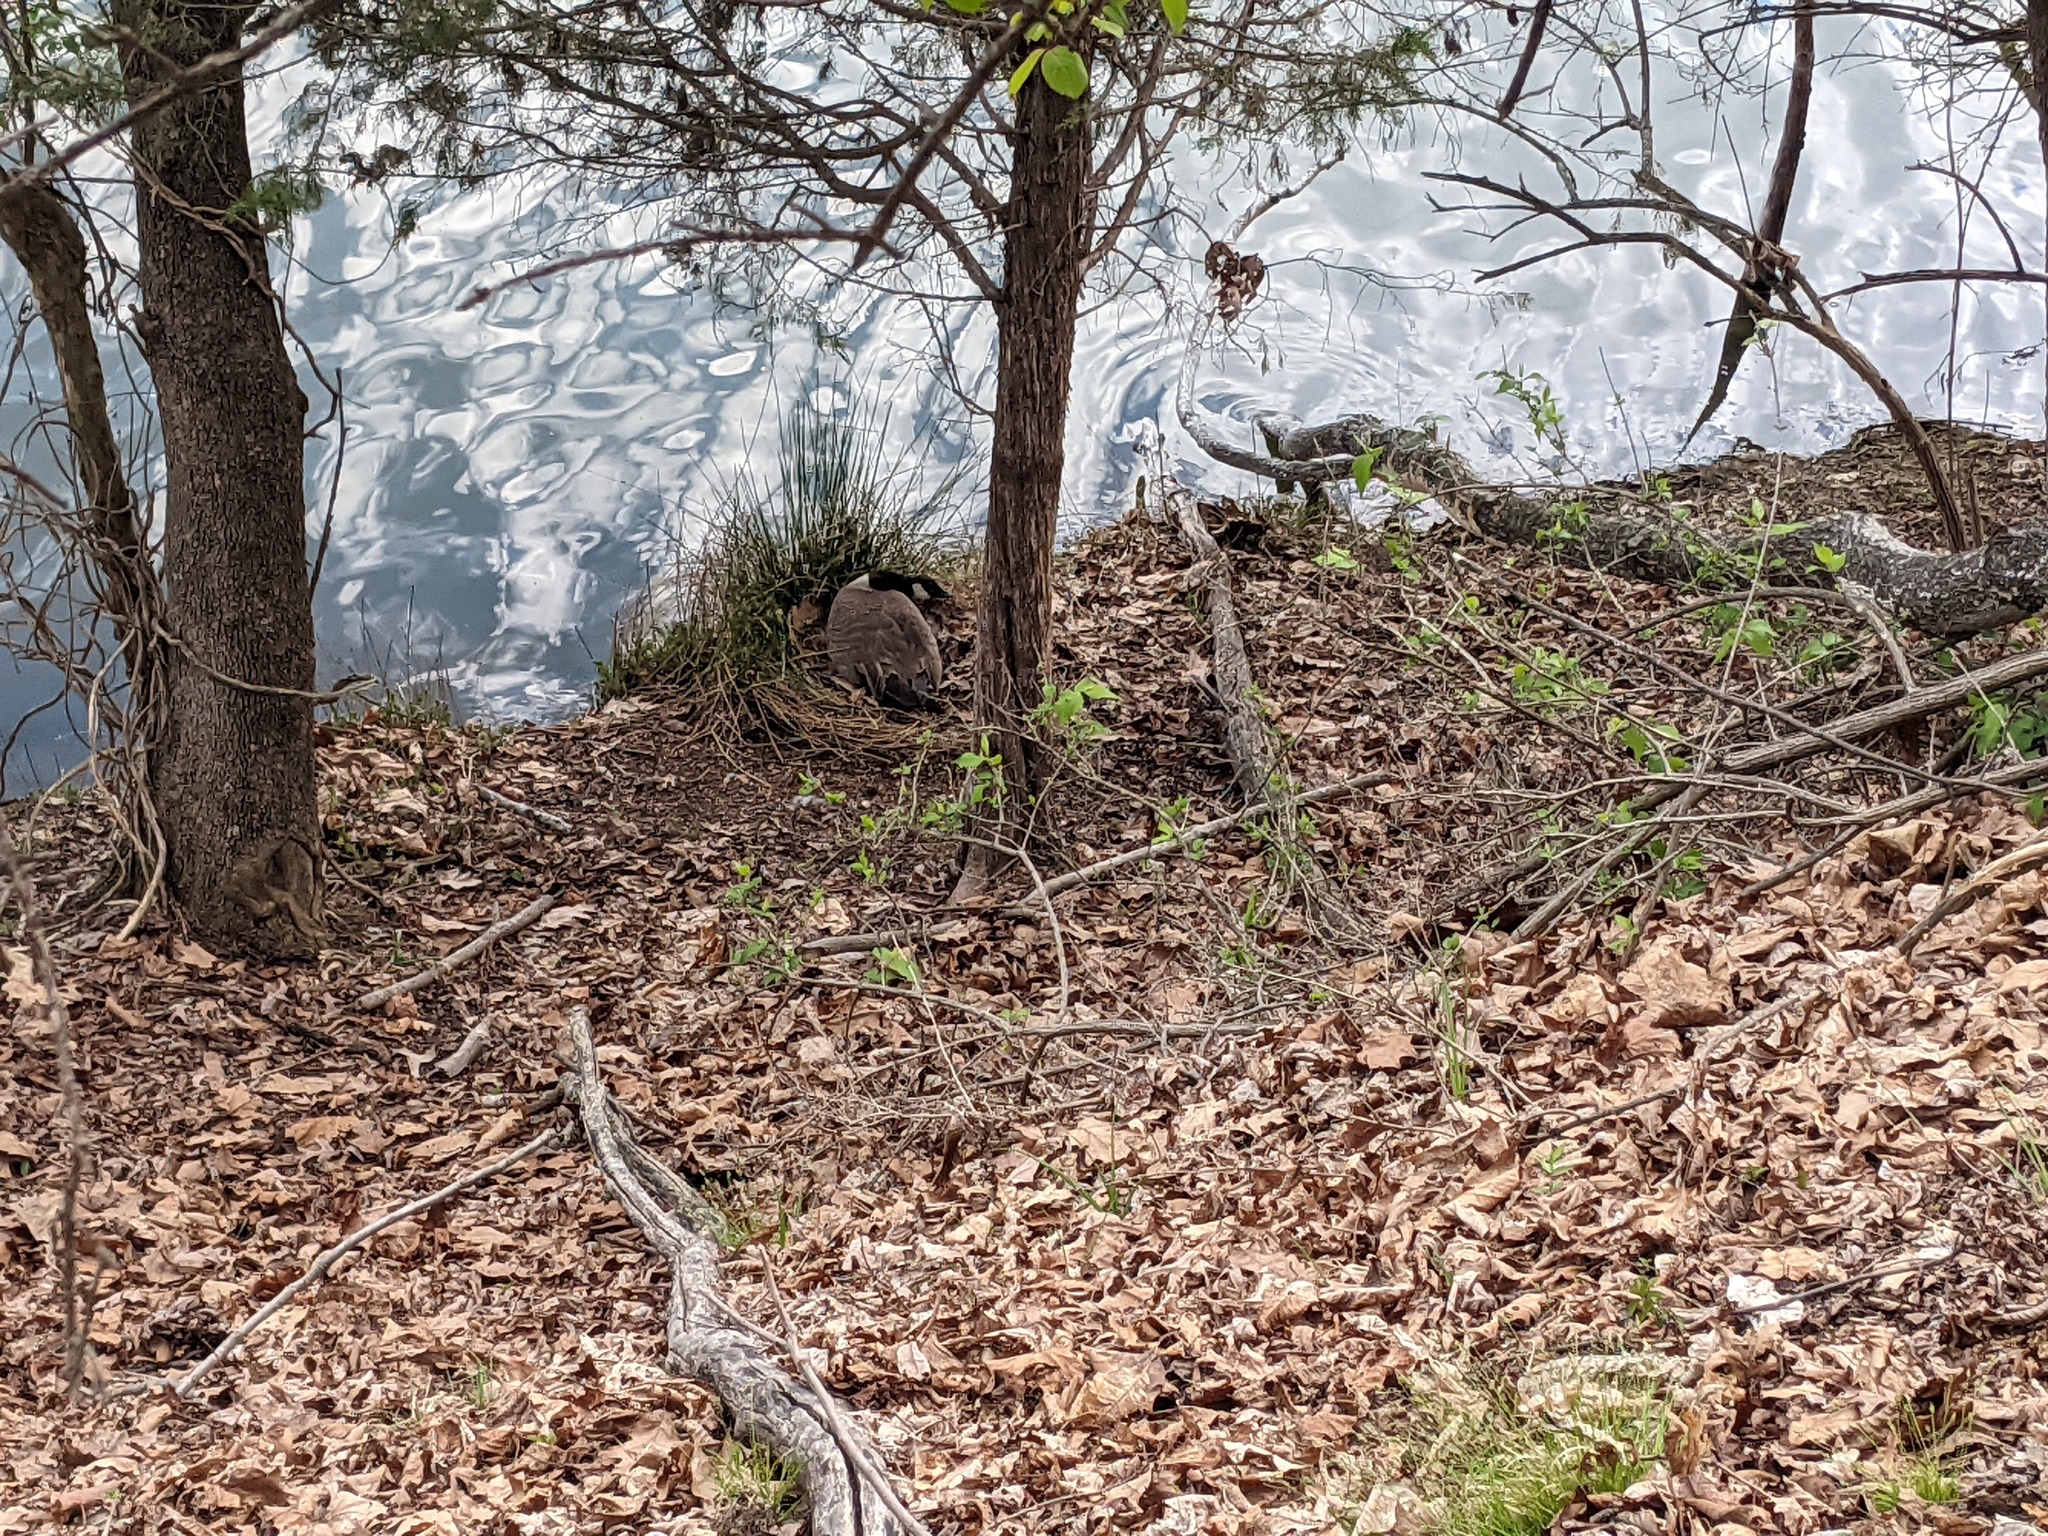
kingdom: Animalia
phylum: Chordata
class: Aves
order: Anseriformes
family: Anatidae
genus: Branta
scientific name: Branta canadensis
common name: Canada goose
